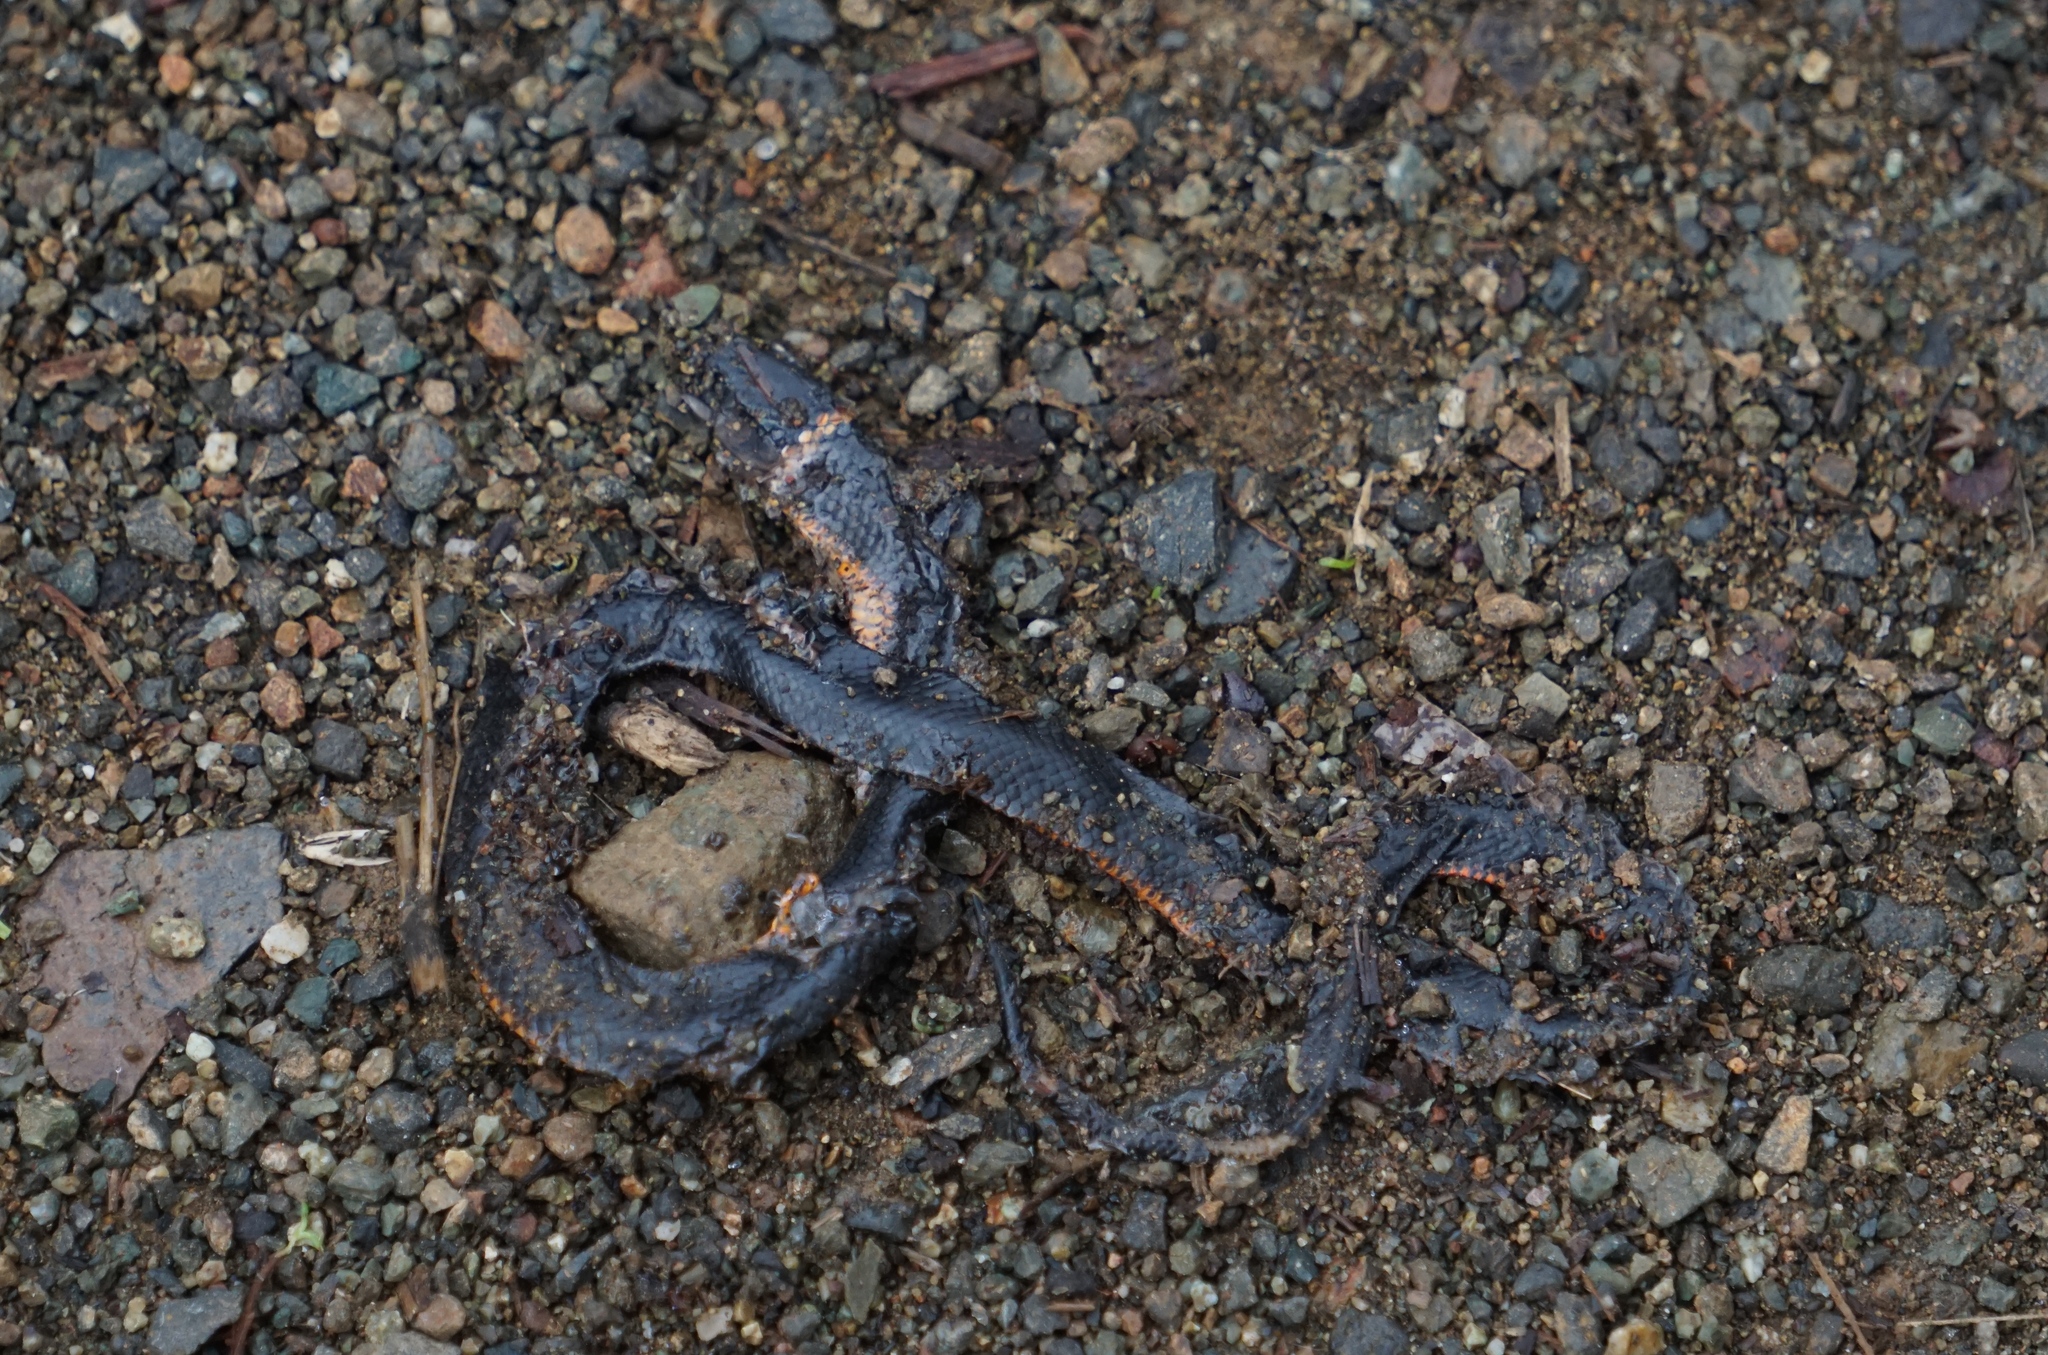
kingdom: Animalia
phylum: Chordata
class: Squamata
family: Colubridae
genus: Diadophis
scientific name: Diadophis punctatus
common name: Ringneck snake
